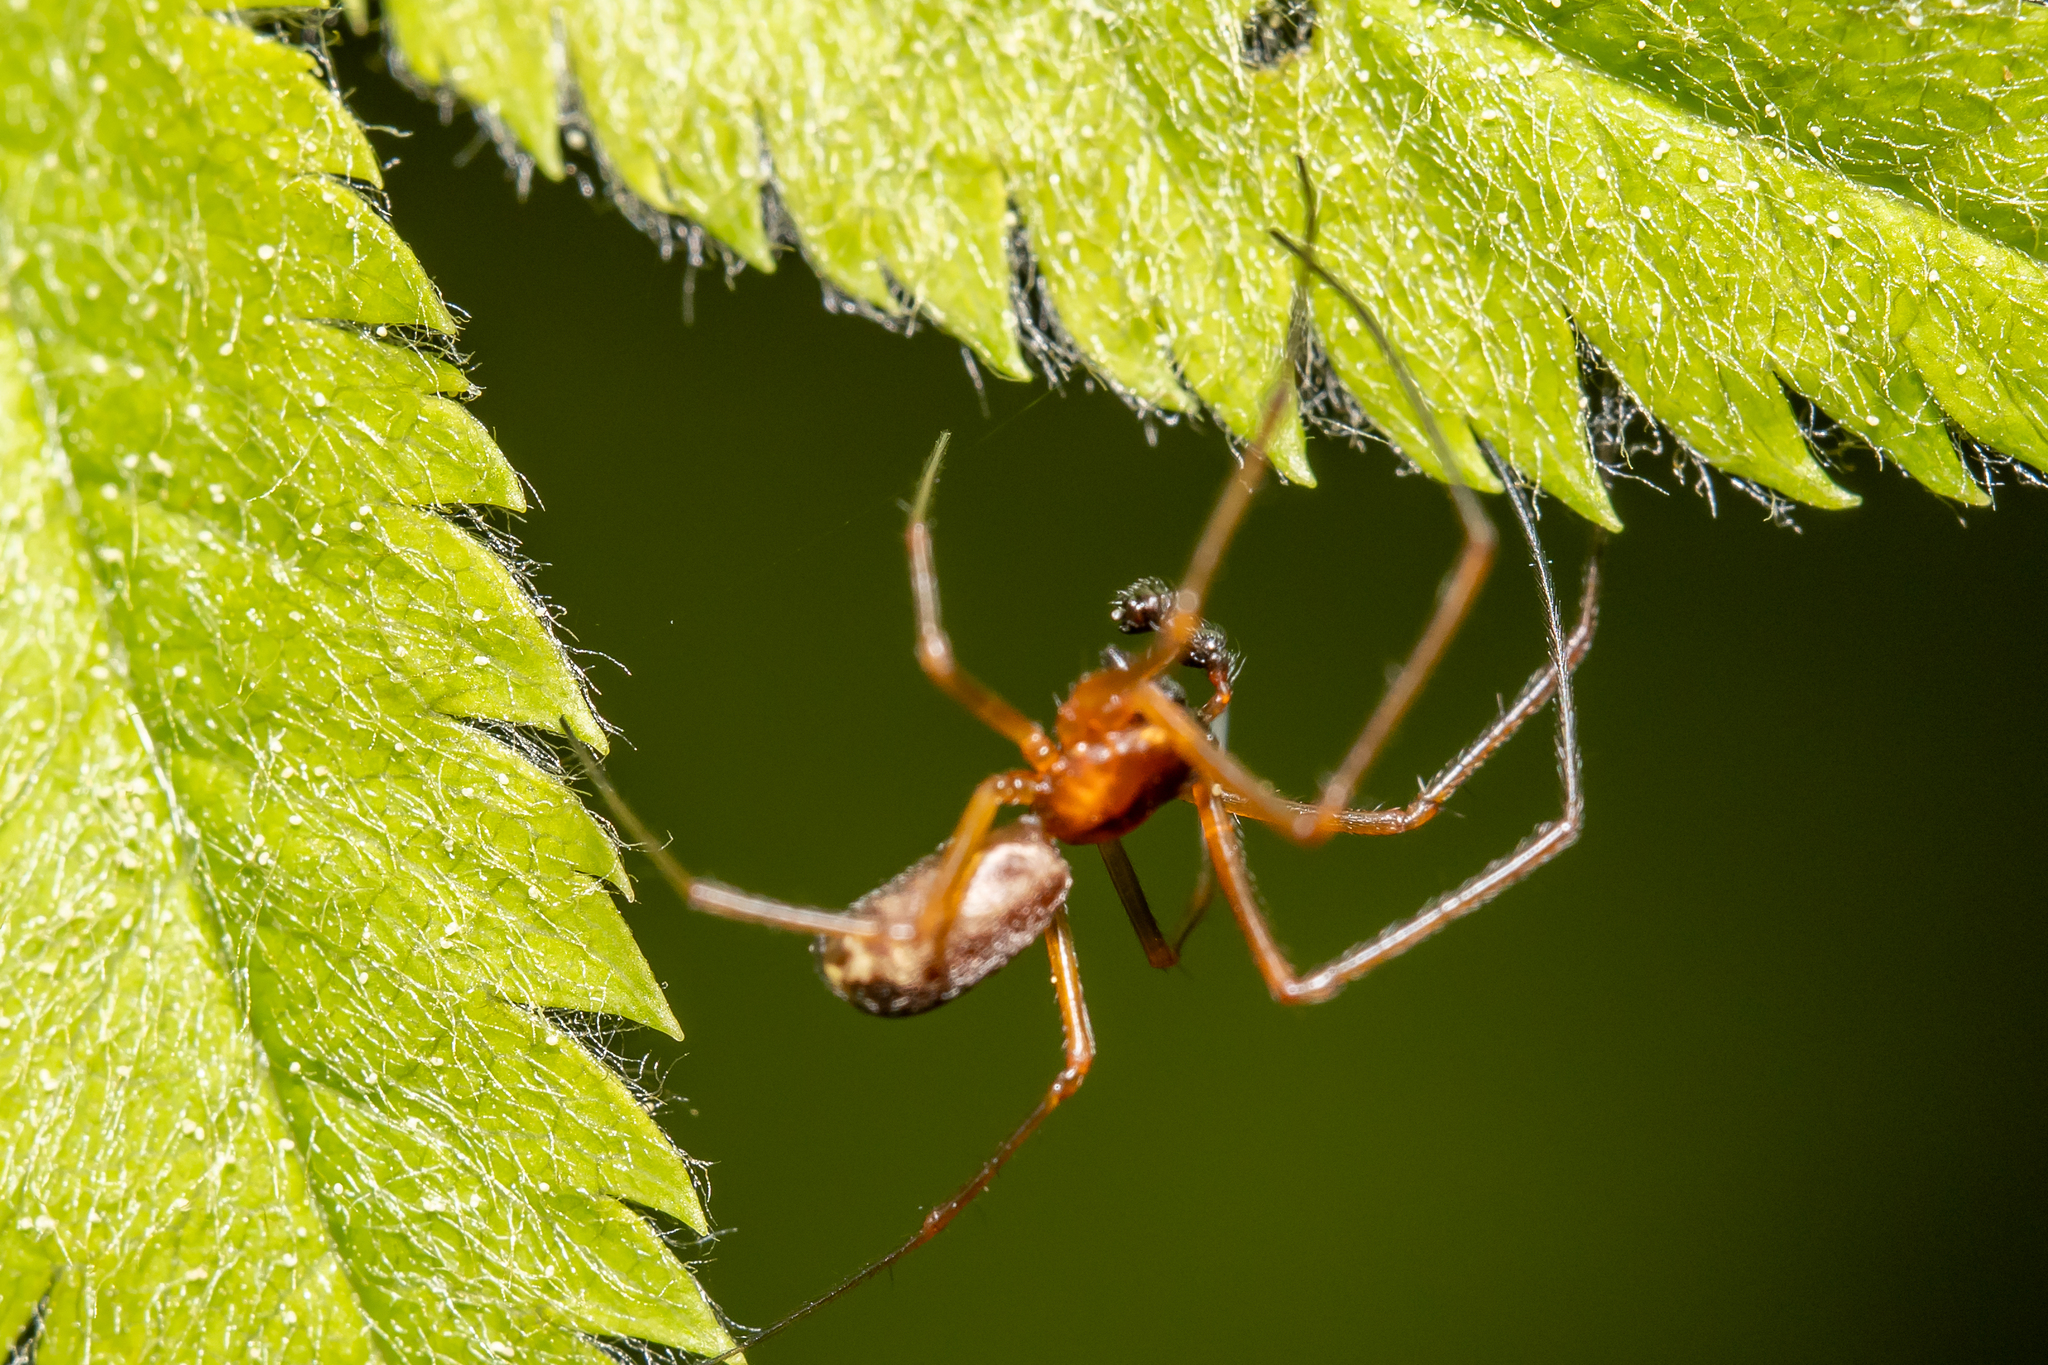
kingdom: Animalia
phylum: Arthropoda
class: Arachnida
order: Araneae
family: Linyphiidae
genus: Neriene
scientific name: Neriene peltata
